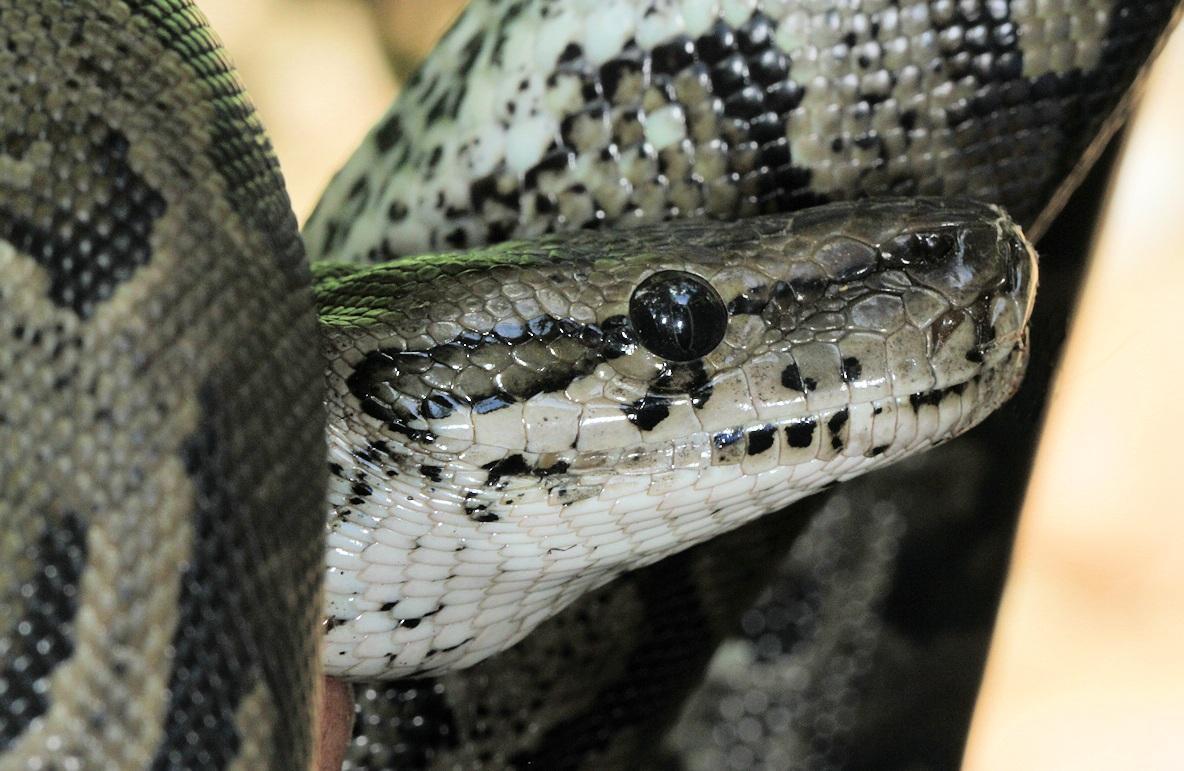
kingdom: Animalia
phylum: Chordata
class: Squamata
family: Pythonidae
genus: Python
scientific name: Python natalensis
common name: Southern african rock python
